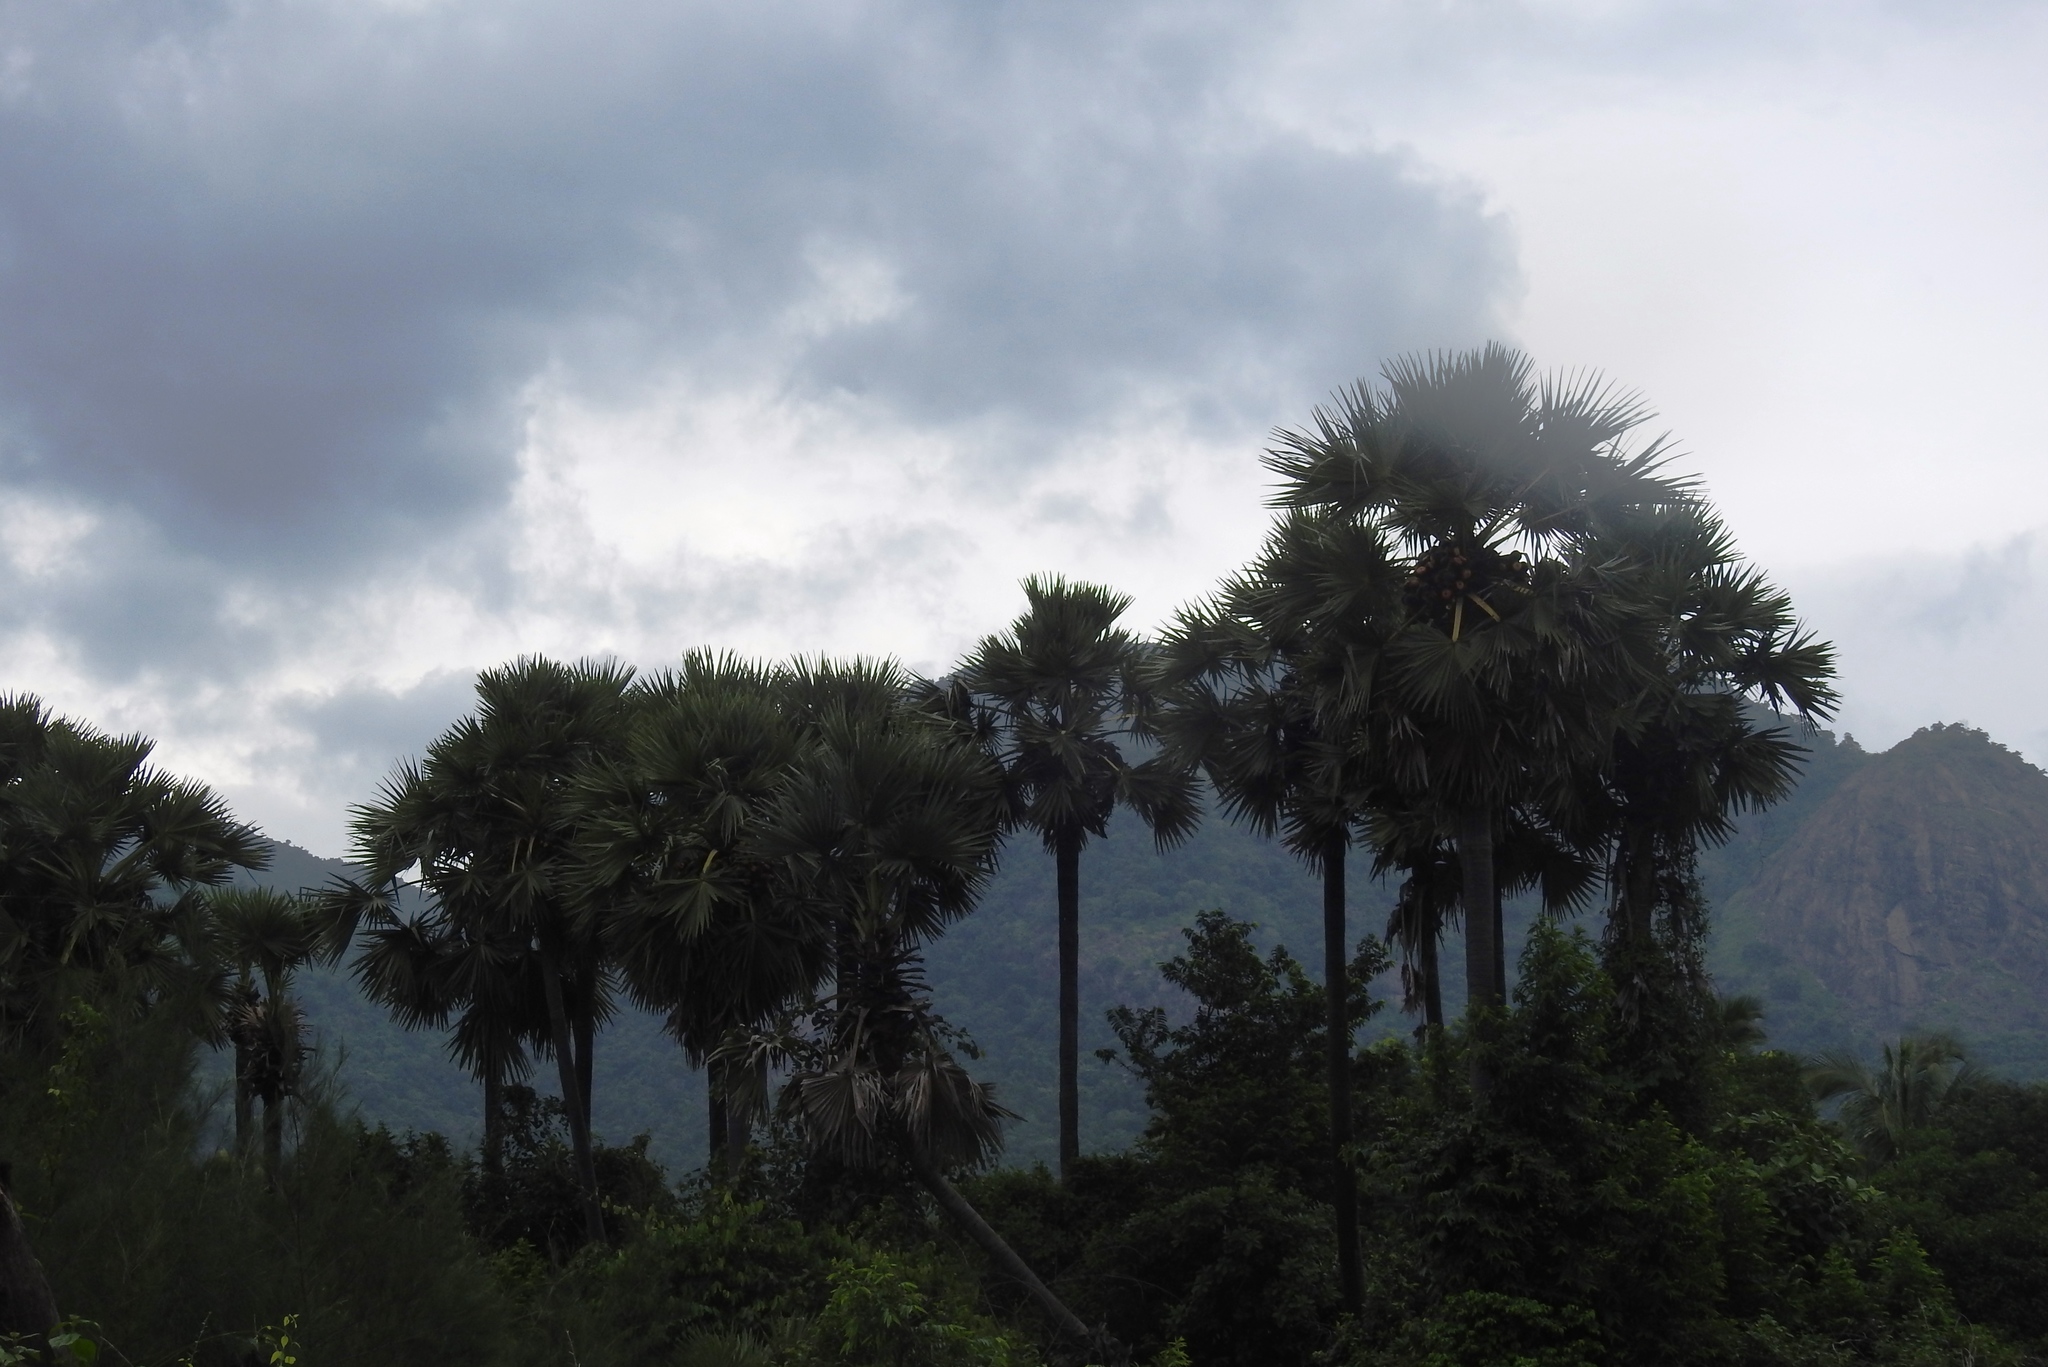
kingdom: Plantae
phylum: Tracheophyta
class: Liliopsida
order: Arecales
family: Arecaceae
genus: Borassus
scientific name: Borassus flabellifer
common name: Palmyra palm
